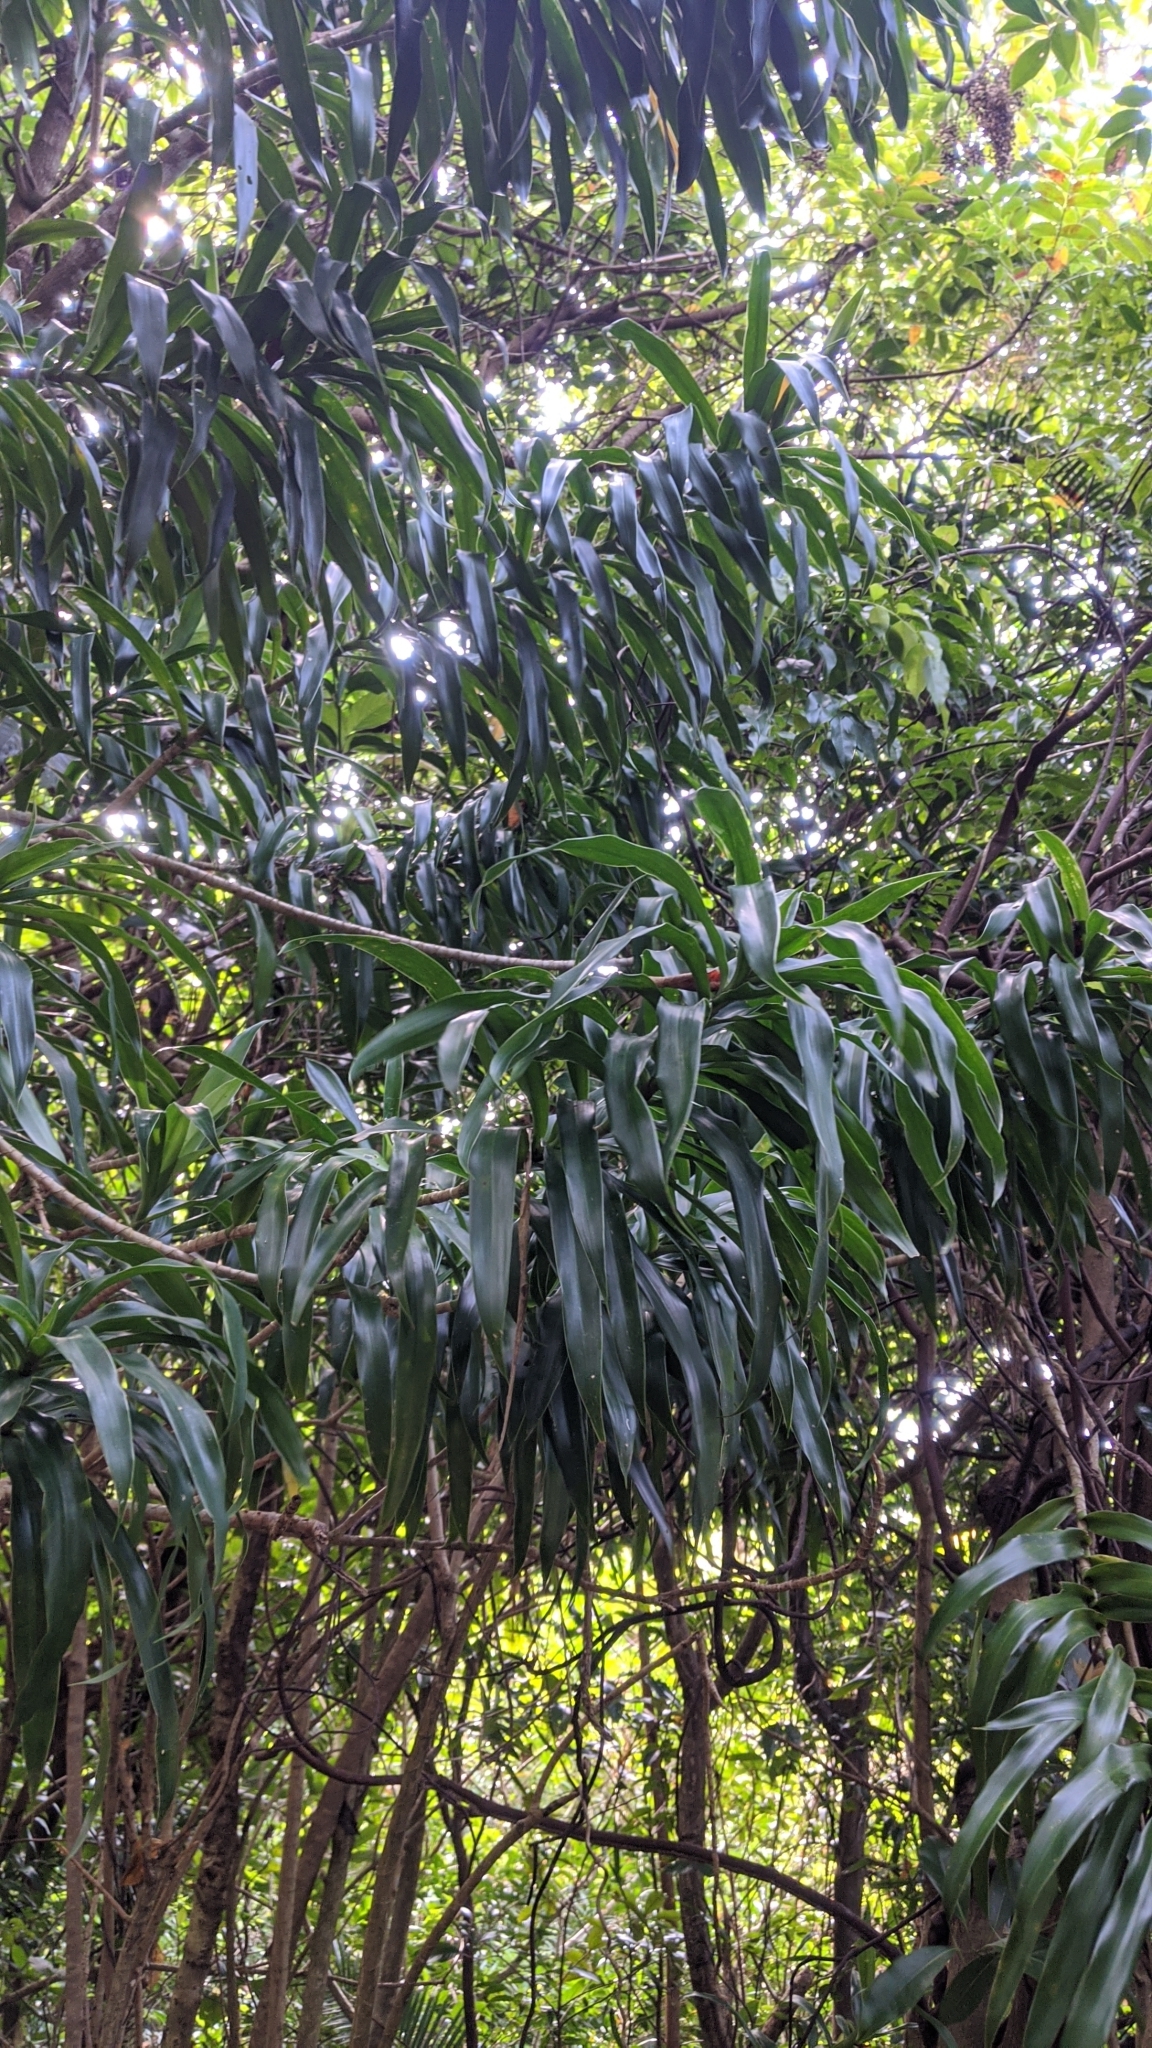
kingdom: Plantae
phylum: Tracheophyta
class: Liliopsida
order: Asparagales
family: Asparagaceae
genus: Dracaena
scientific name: Dracaena angustifolia
